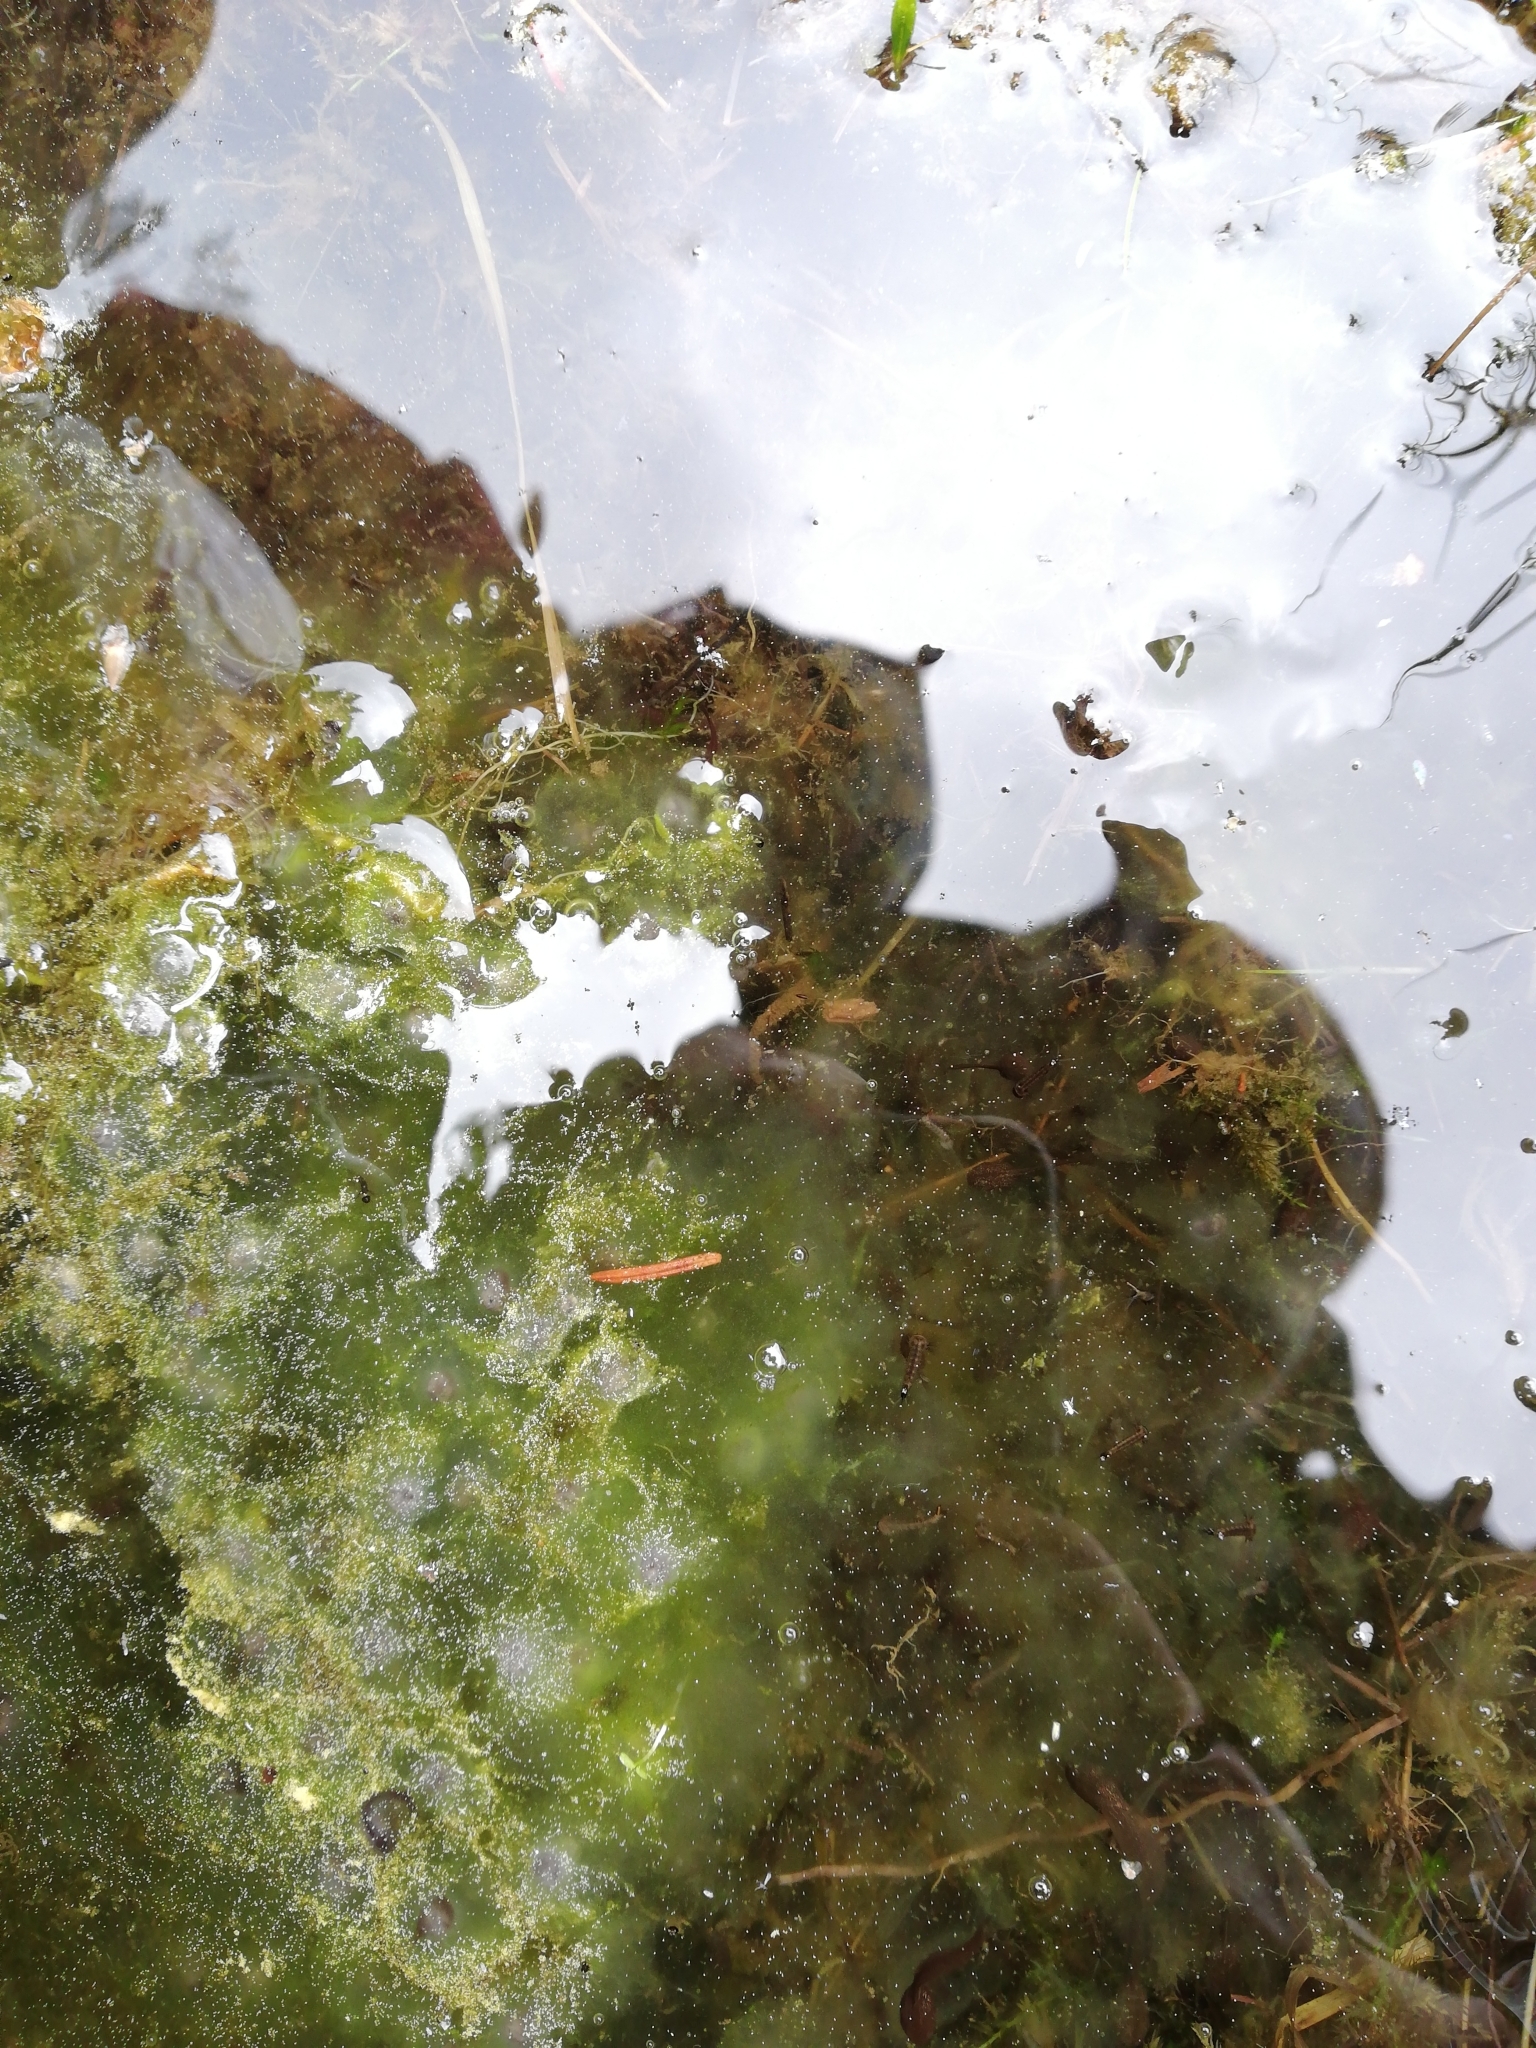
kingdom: Animalia
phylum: Chordata
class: Amphibia
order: Anura
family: Ranidae
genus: Rana
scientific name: Rana temporaria
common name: Common frog
